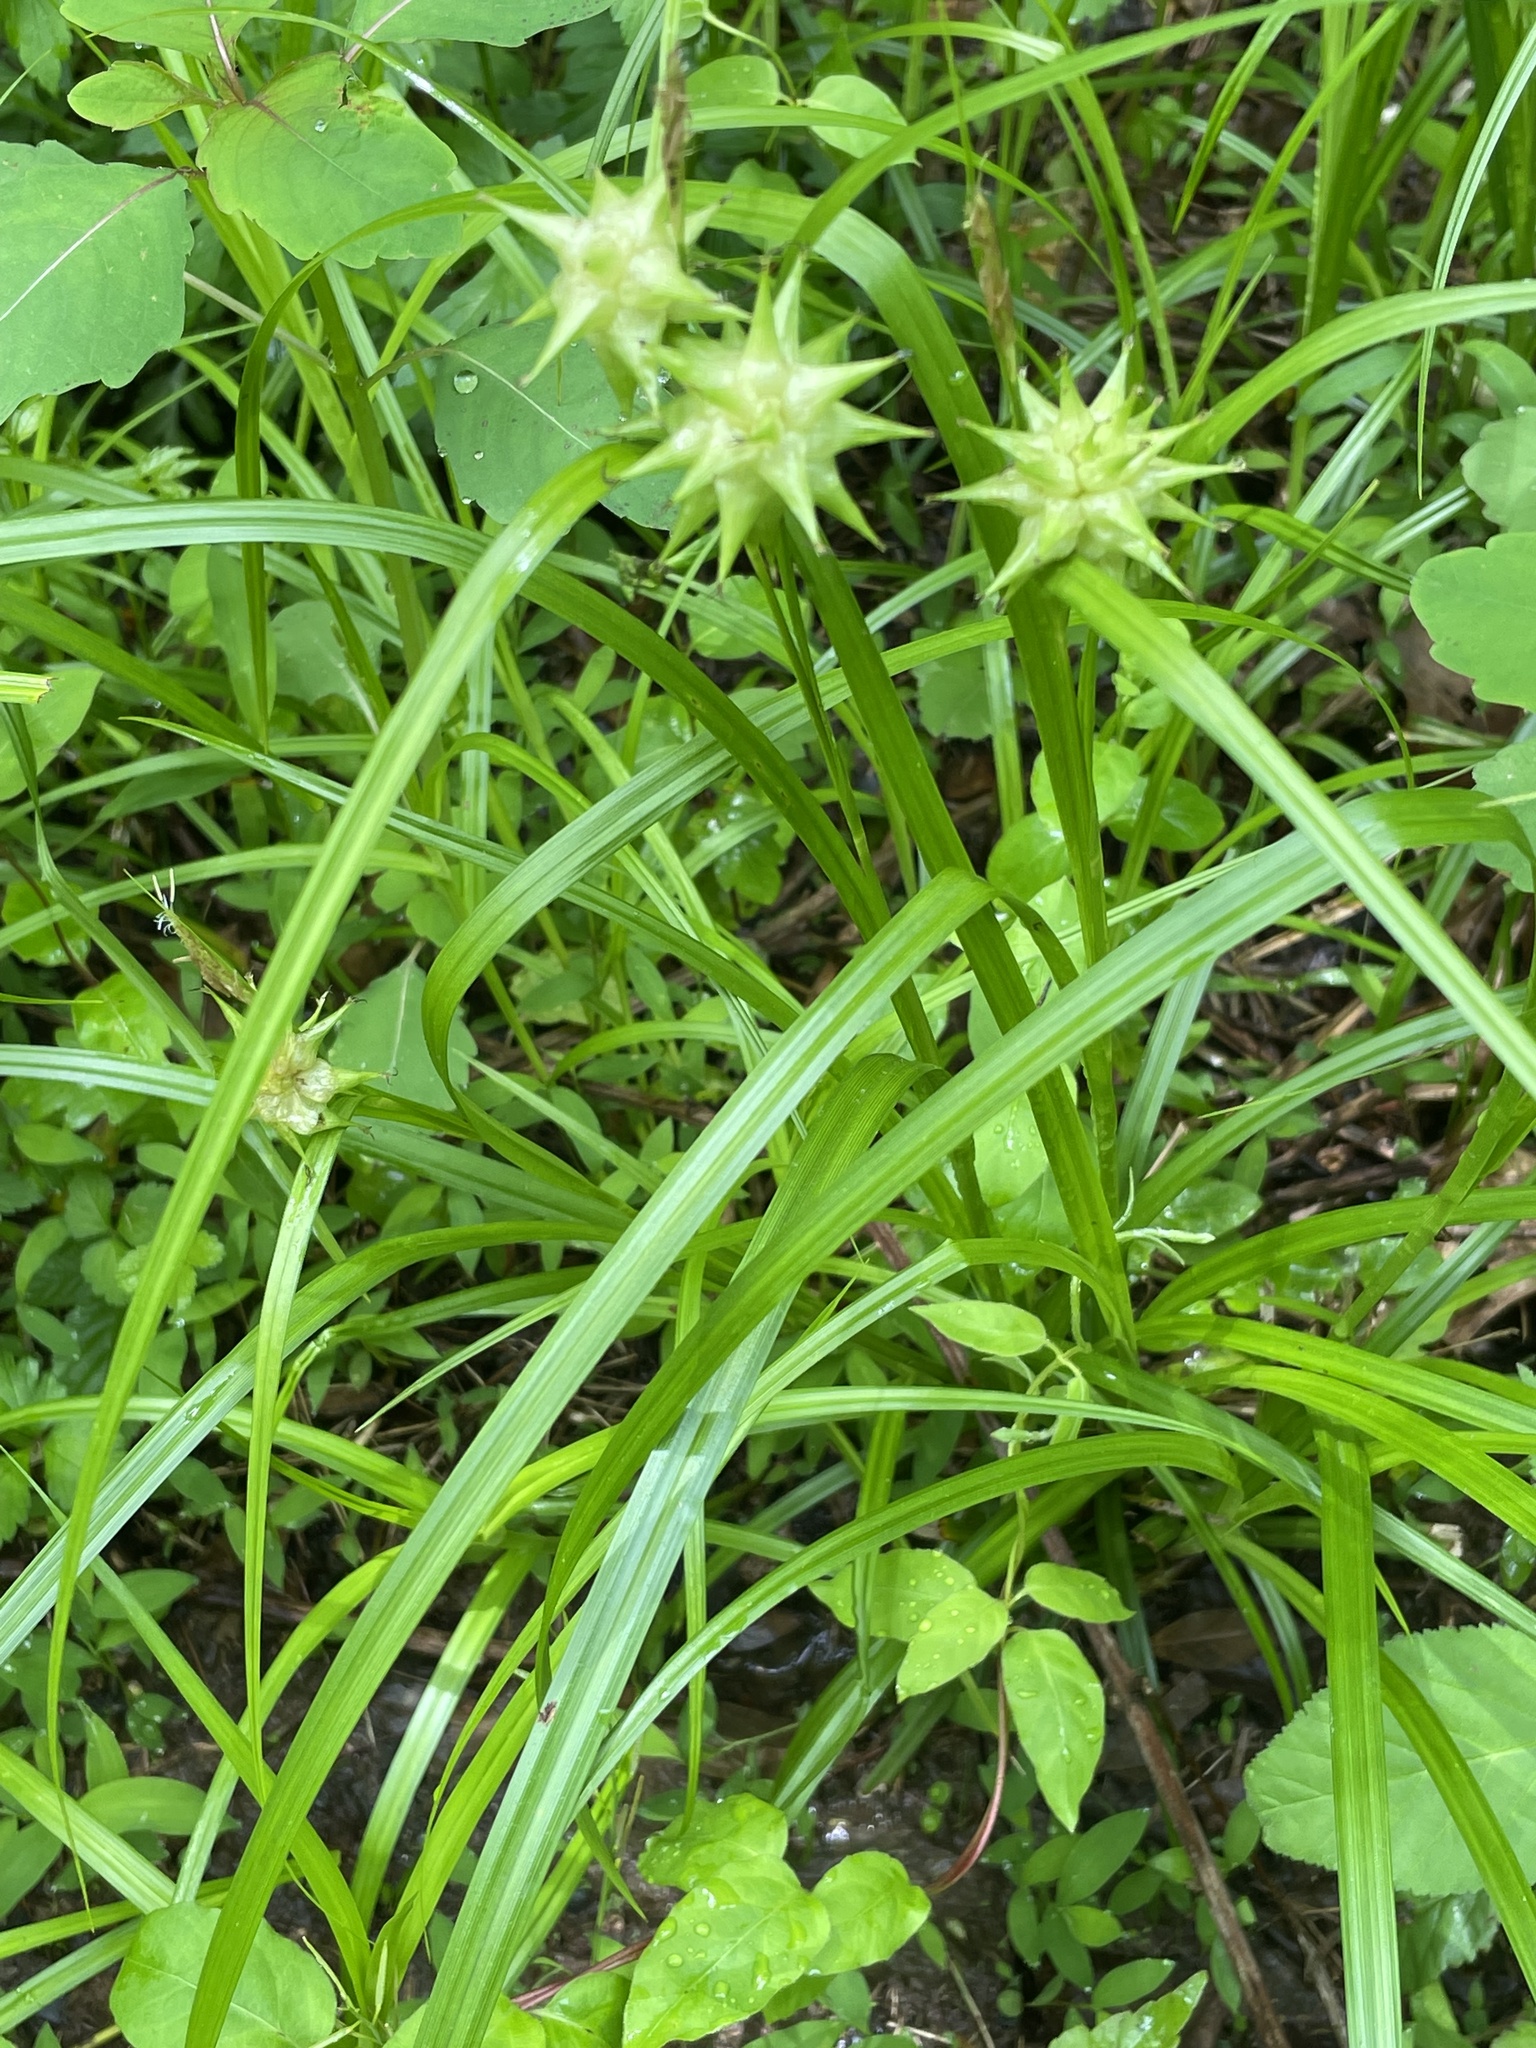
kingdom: Plantae
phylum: Tracheophyta
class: Liliopsida
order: Poales
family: Cyperaceae
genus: Carex
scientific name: Carex grayi
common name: Asa gray's sedge
